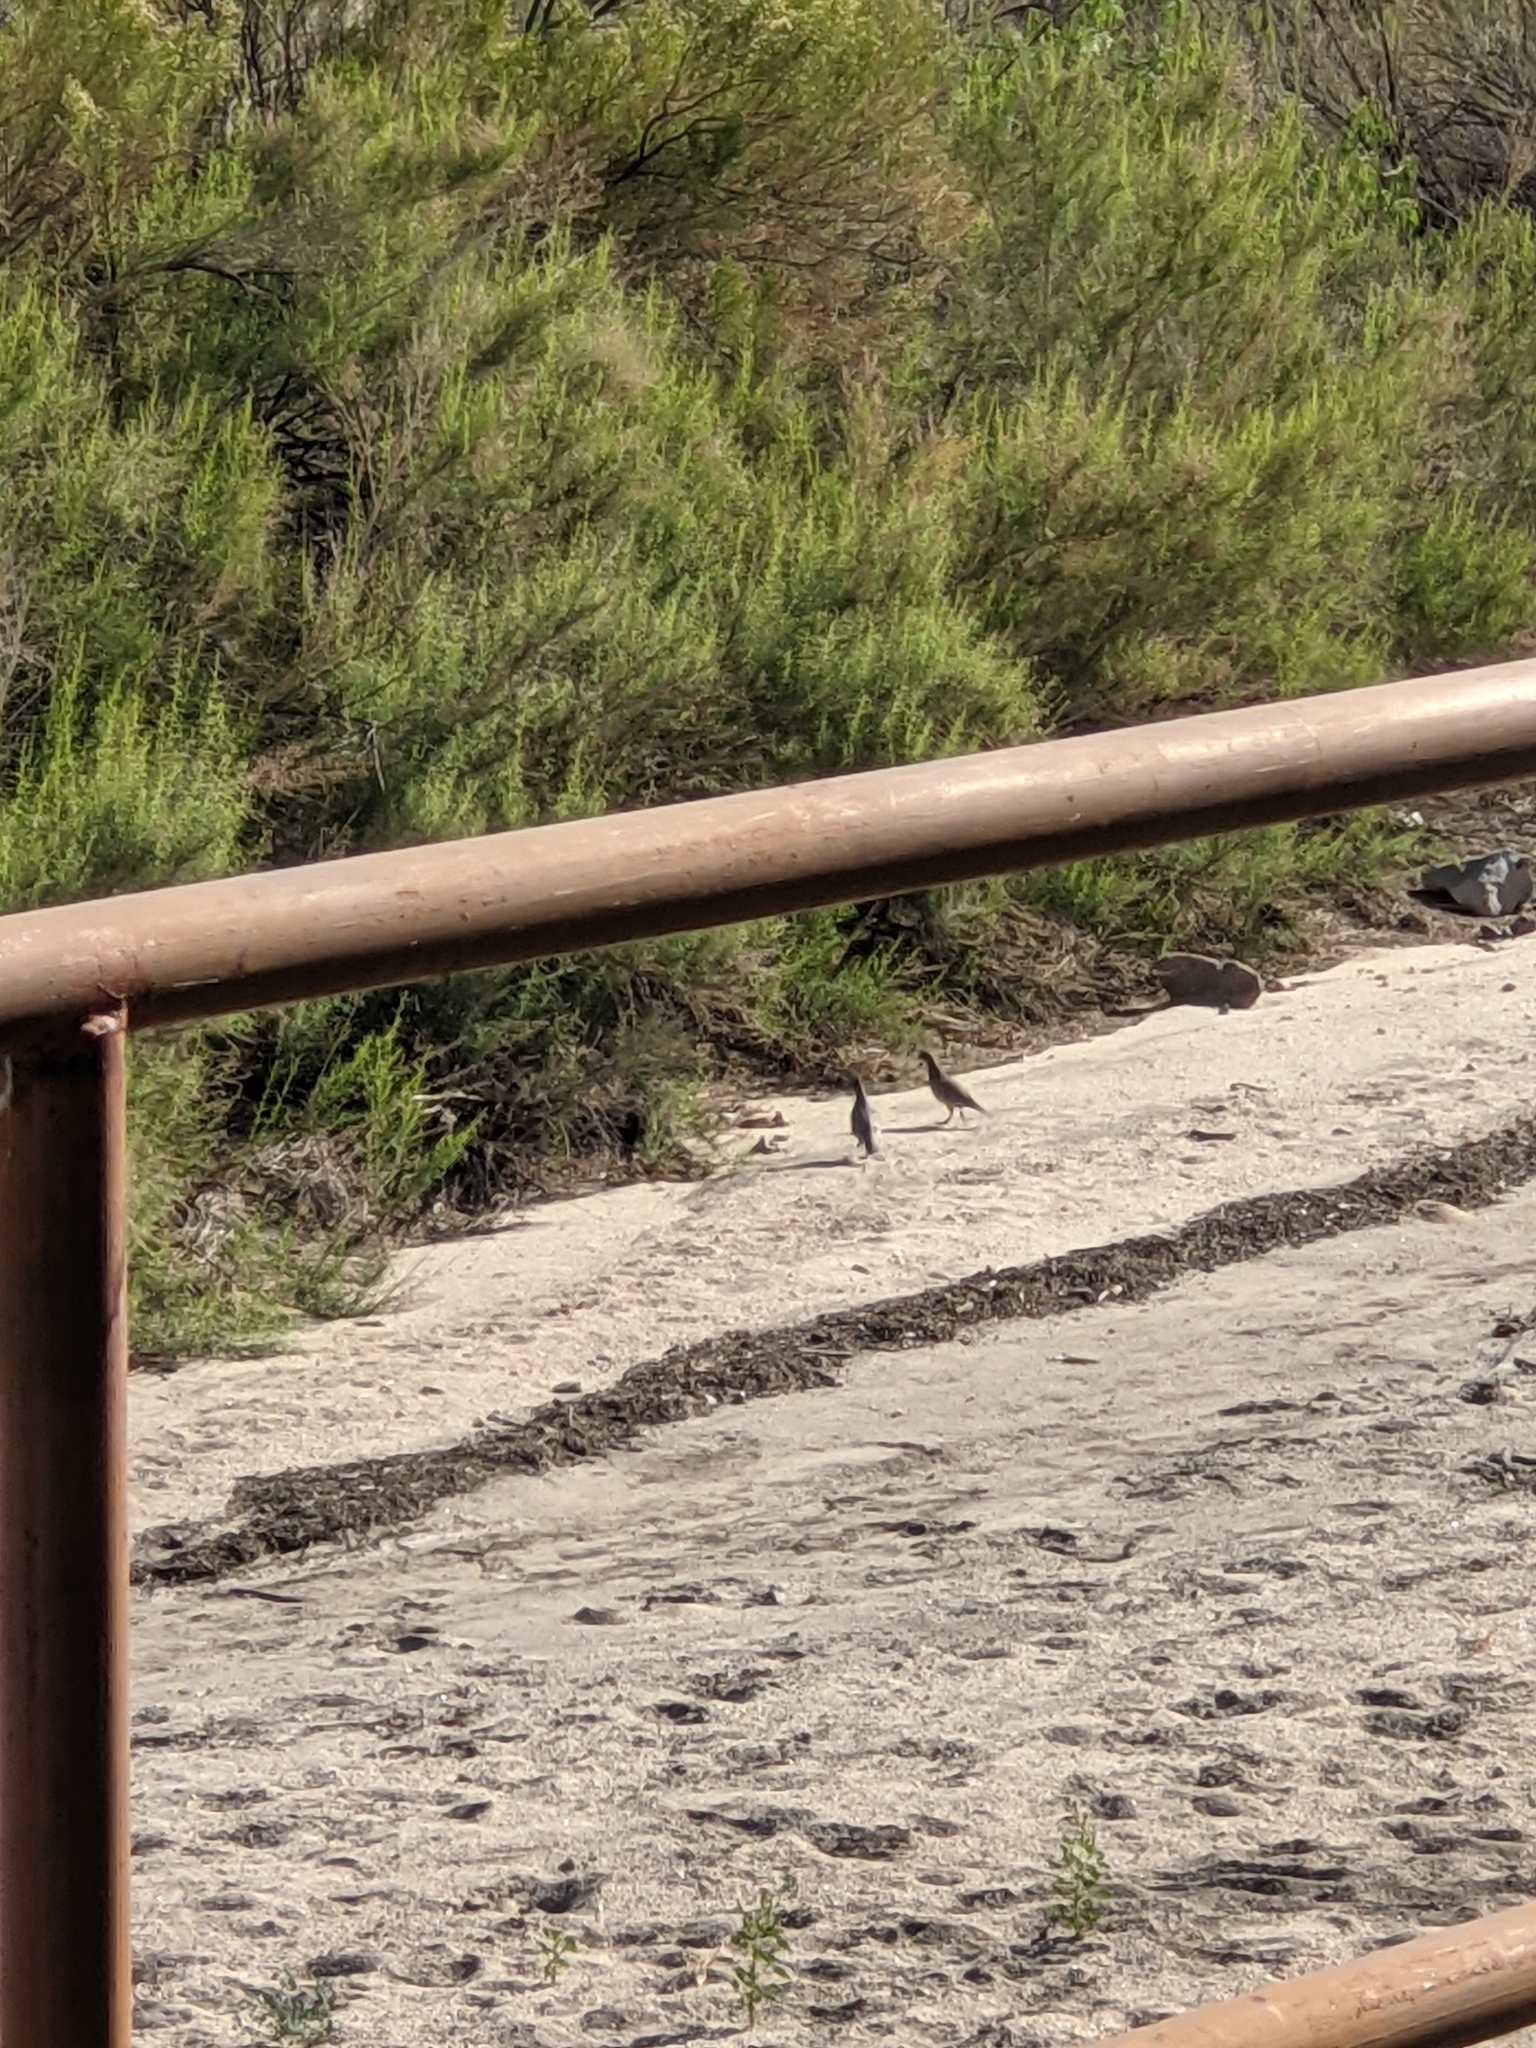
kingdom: Animalia
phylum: Chordata
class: Aves
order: Galliformes
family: Odontophoridae
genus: Callipepla
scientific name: Callipepla gambelii
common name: Gambel's quail
